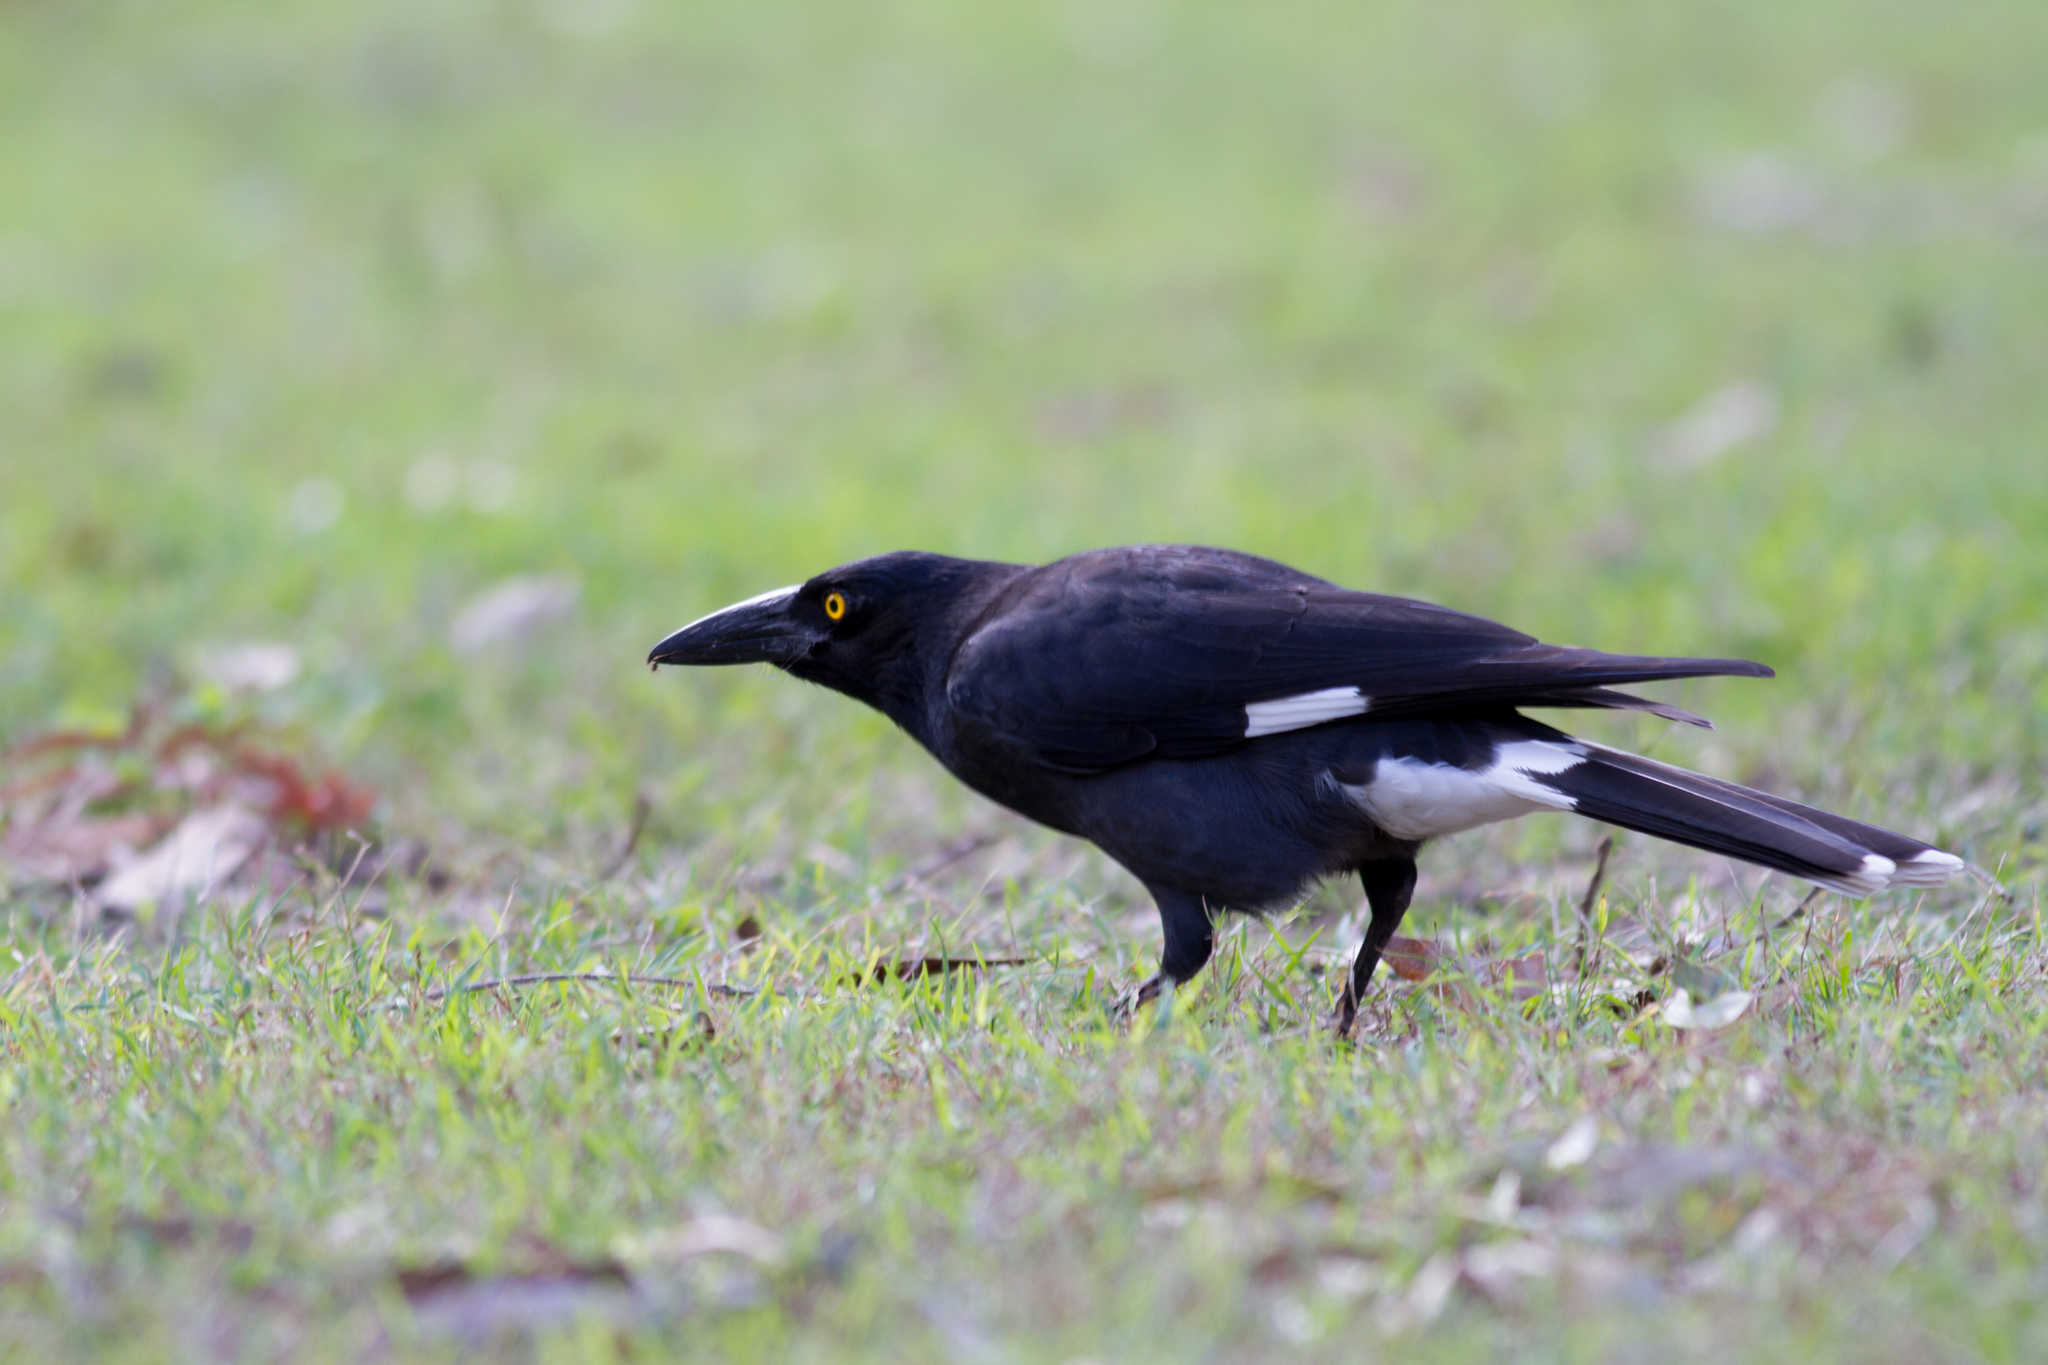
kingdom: Animalia
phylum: Chordata
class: Aves
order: Passeriformes
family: Cracticidae
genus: Strepera
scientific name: Strepera graculina
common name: Pied currawong
